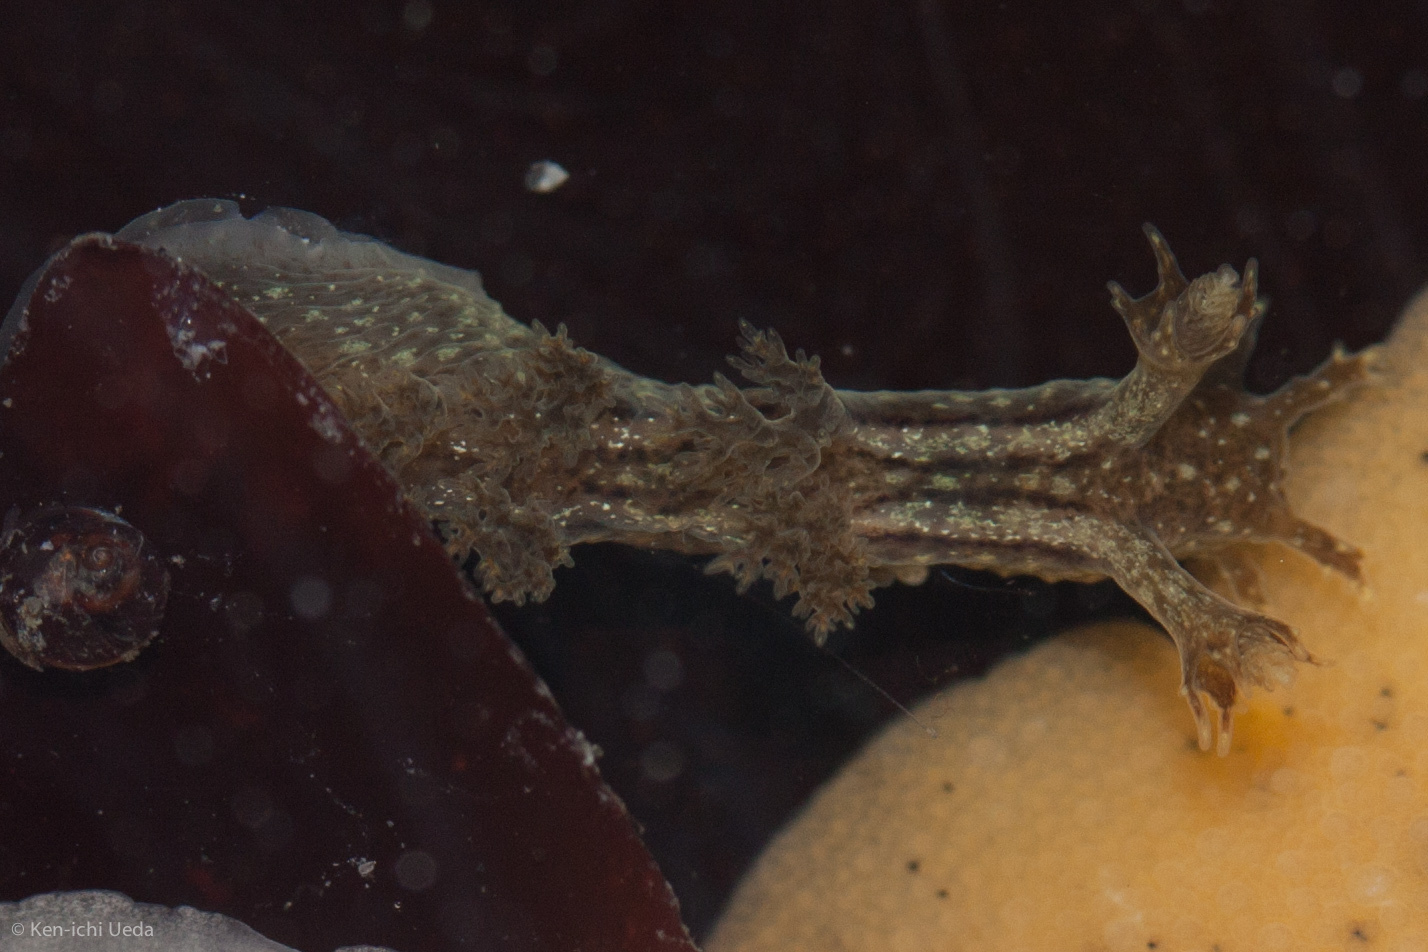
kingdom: Animalia
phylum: Mollusca
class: Gastropoda
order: Nudibranchia
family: Dendronotidae
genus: Dendronotus
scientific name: Dendronotus subramosus
